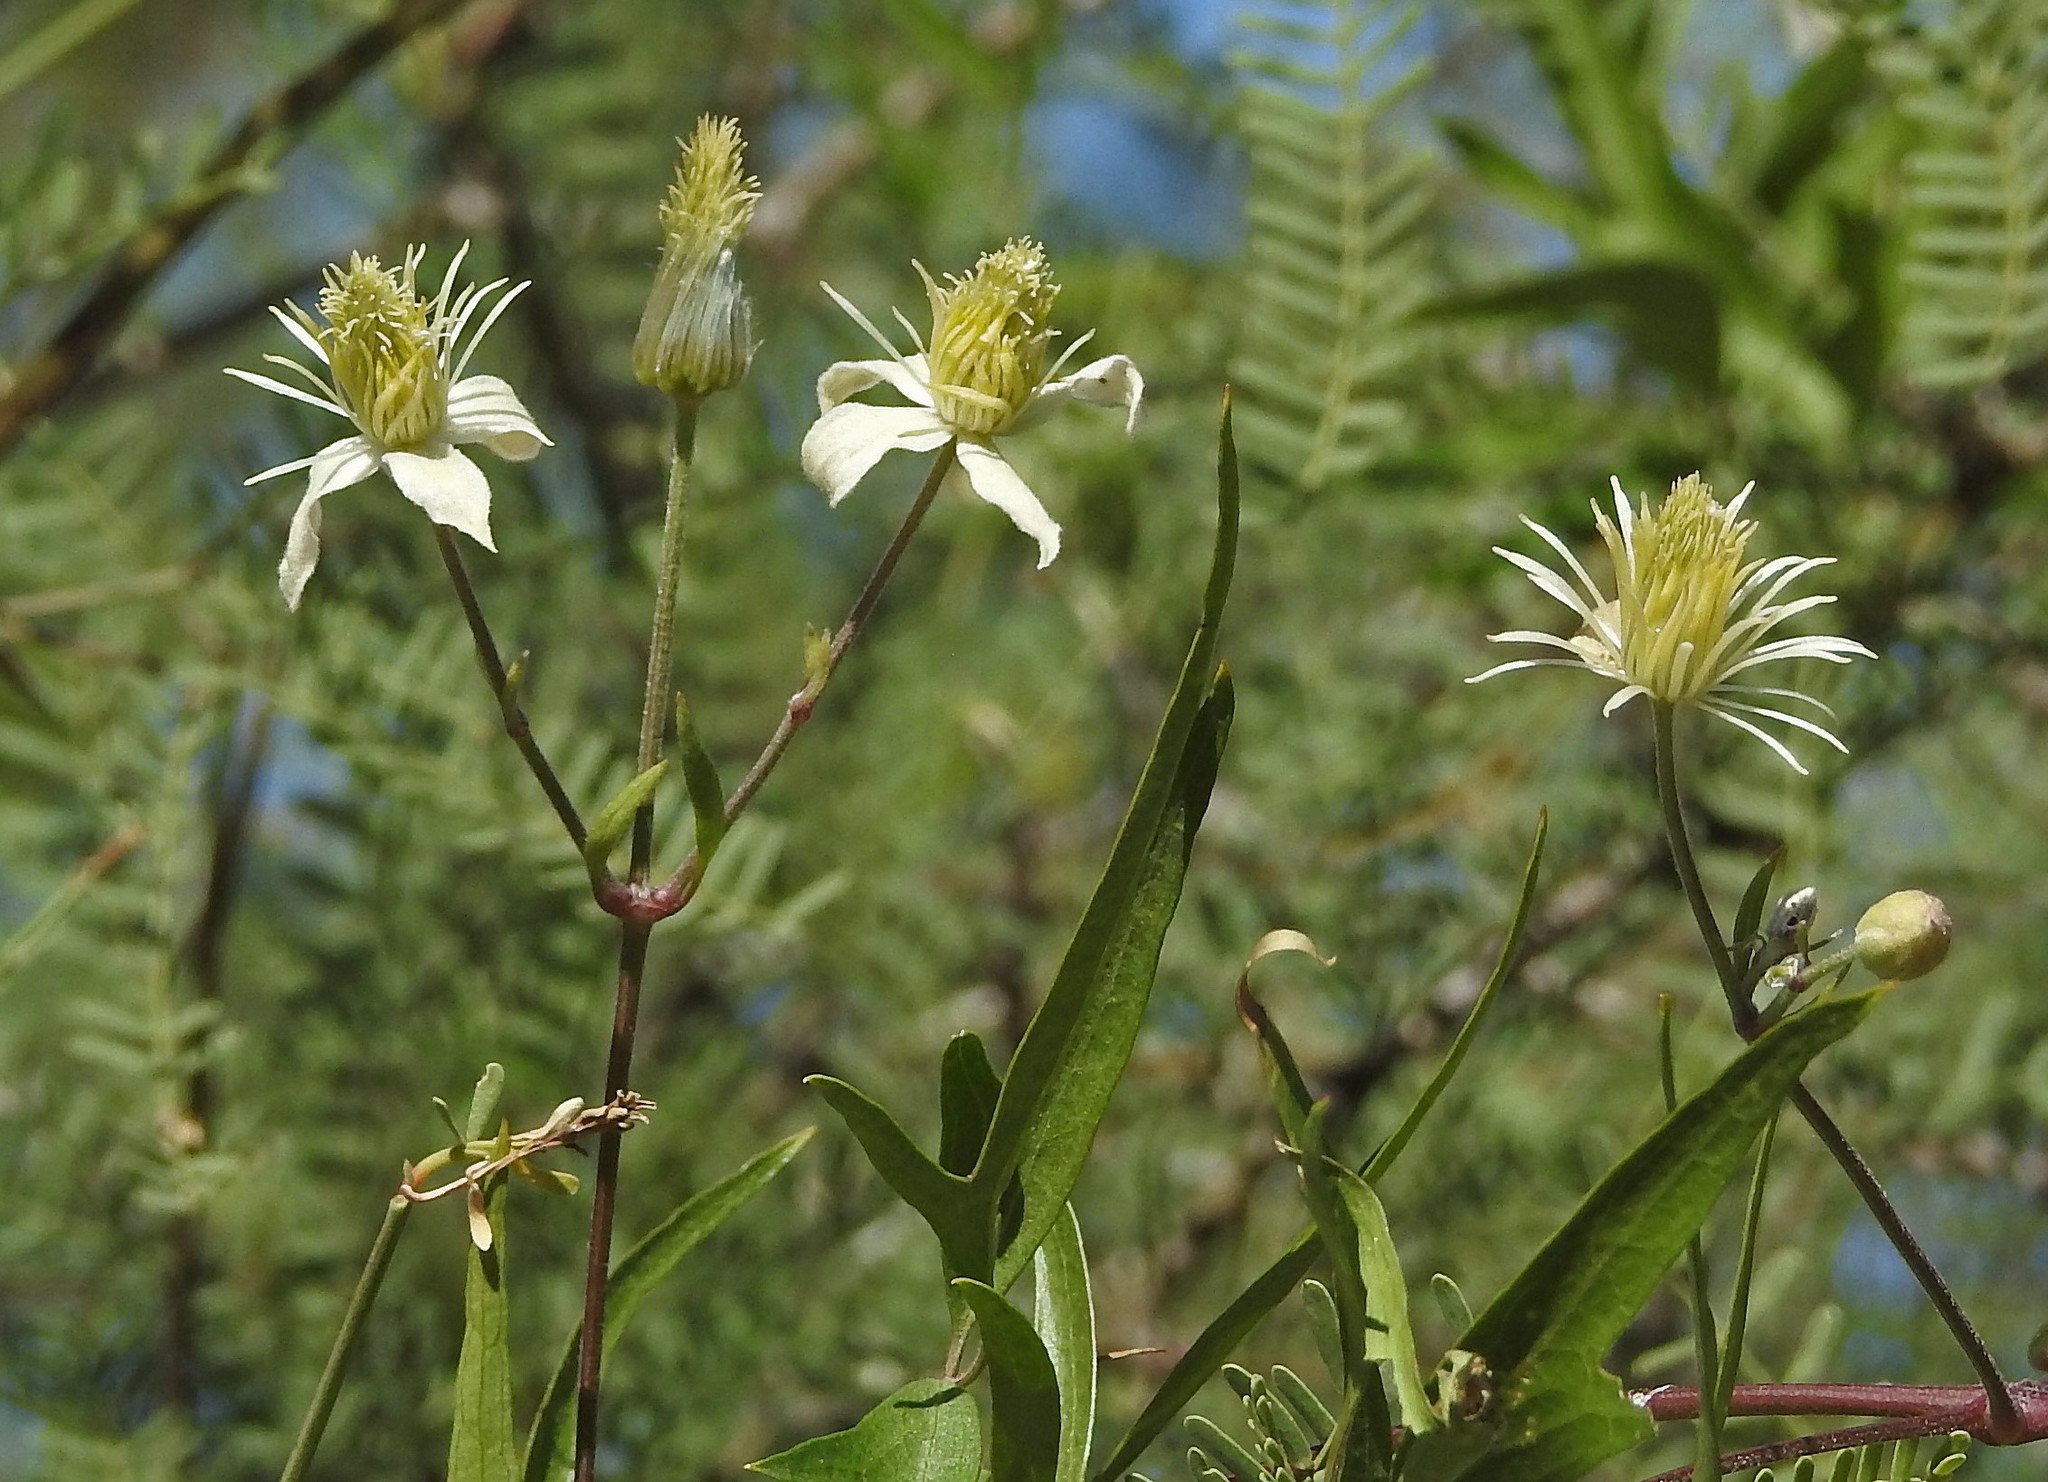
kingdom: Plantae
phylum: Tracheophyta
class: Magnoliopsida
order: Ranunculales
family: Ranunculaceae
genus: Clematis
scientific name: Clematis montevidensis
